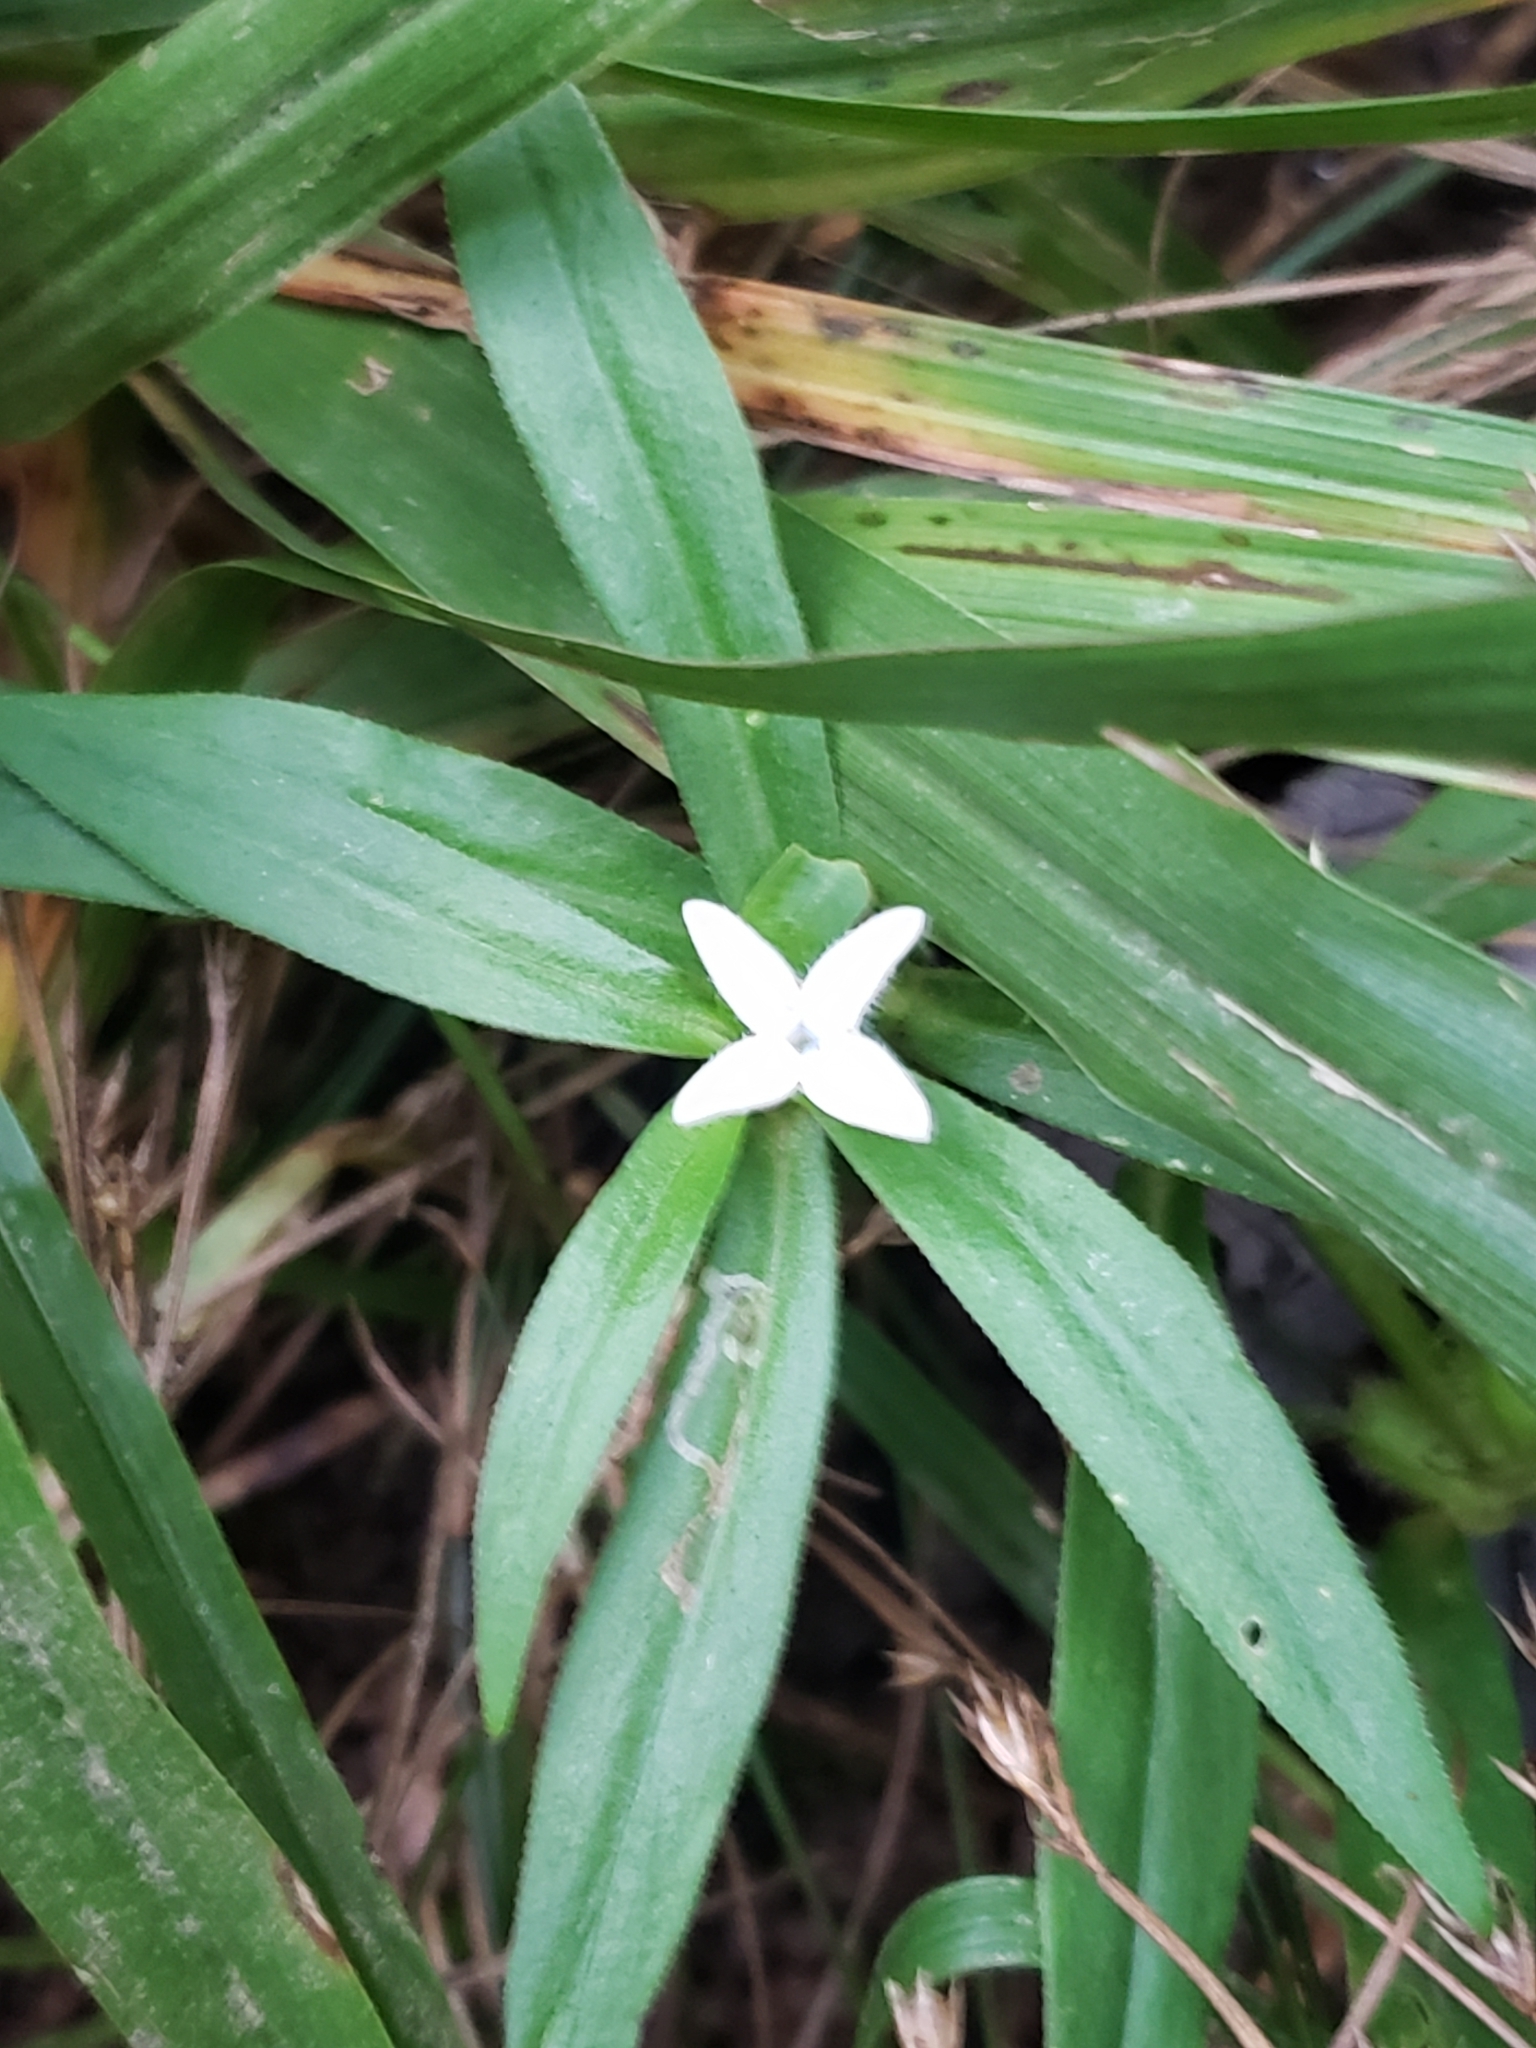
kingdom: Plantae
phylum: Tracheophyta
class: Magnoliopsida
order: Gentianales
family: Rubiaceae
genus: Diodia
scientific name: Diodia virginiana
